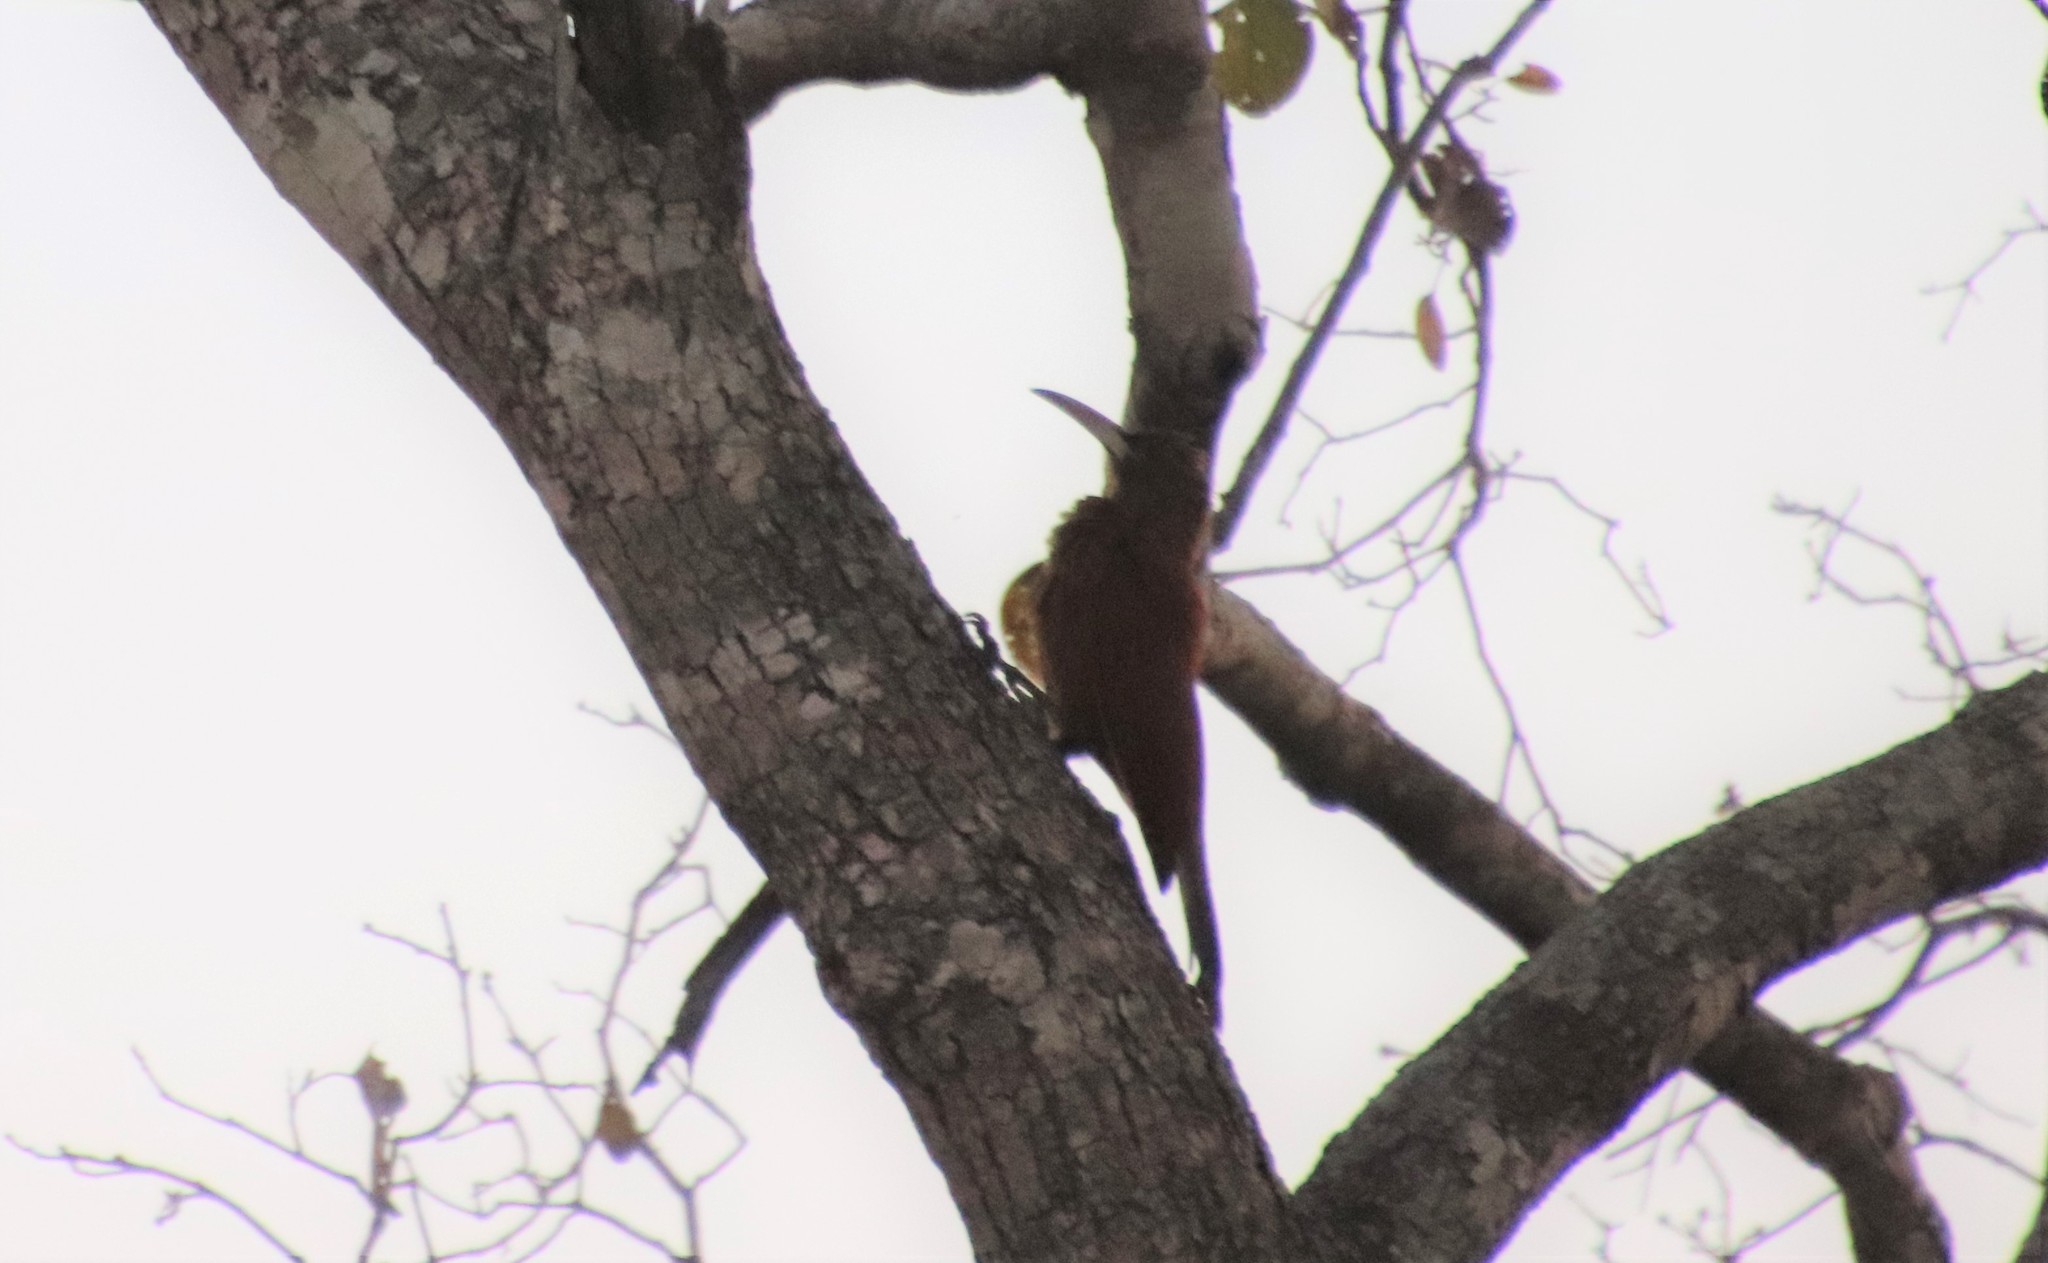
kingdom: Animalia
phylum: Chordata
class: Aves
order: Passeriformes
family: Furnariidae
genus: Xiphocolaptes
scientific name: Xiphocolaptes major
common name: Great rufous woodcreeper
